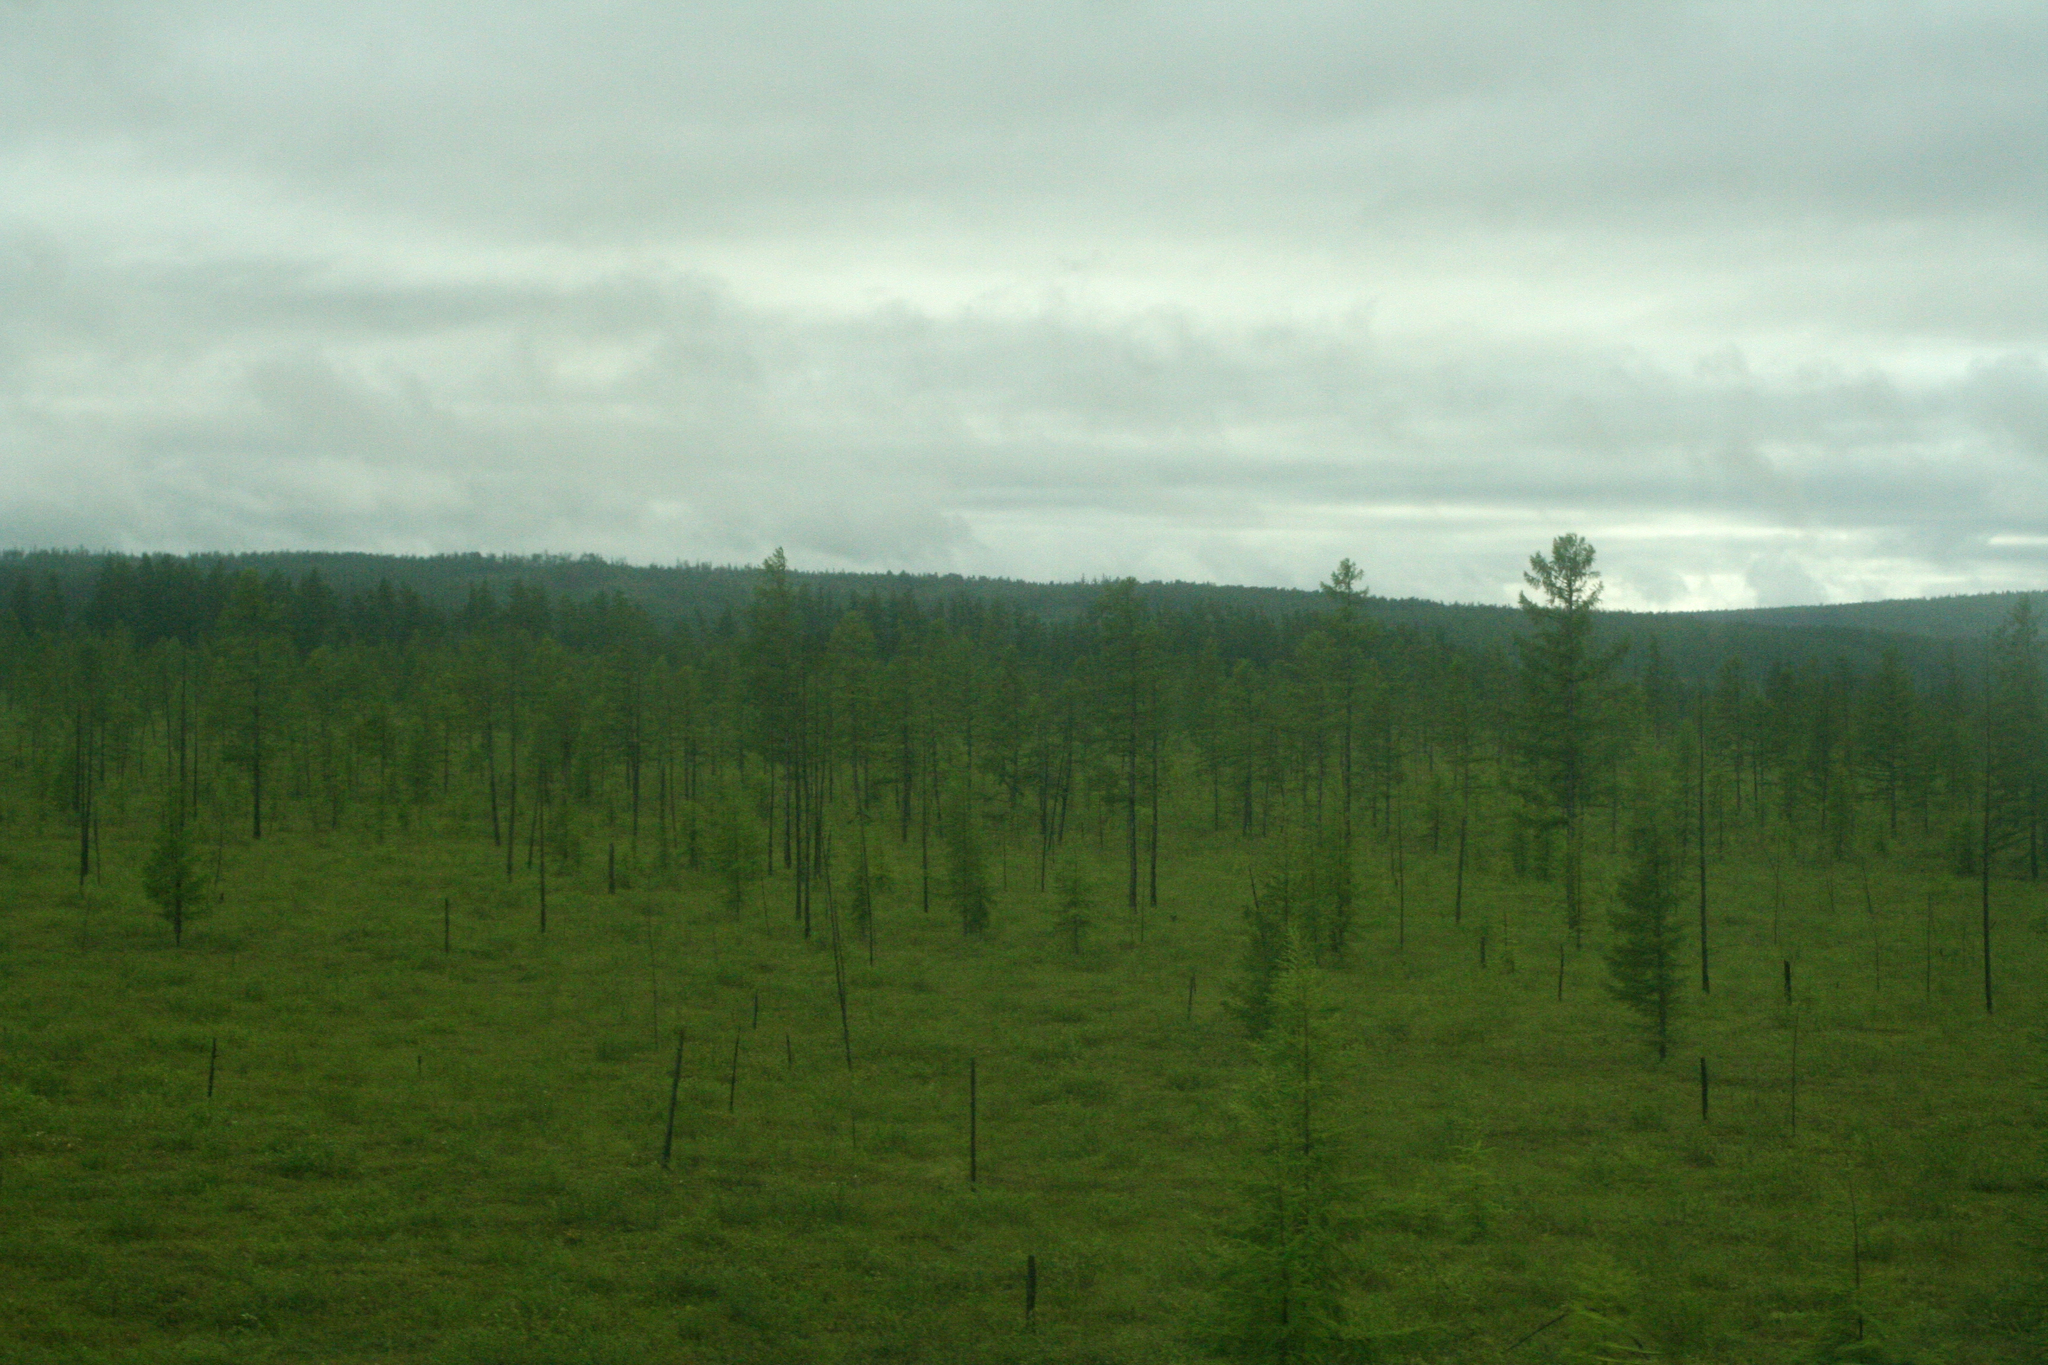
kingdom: Plantae
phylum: Tracheophyta
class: Pinopsida
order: Pinales
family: Pinaceae
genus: Larix
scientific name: Larix gmelinii
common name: Dahurian larch
